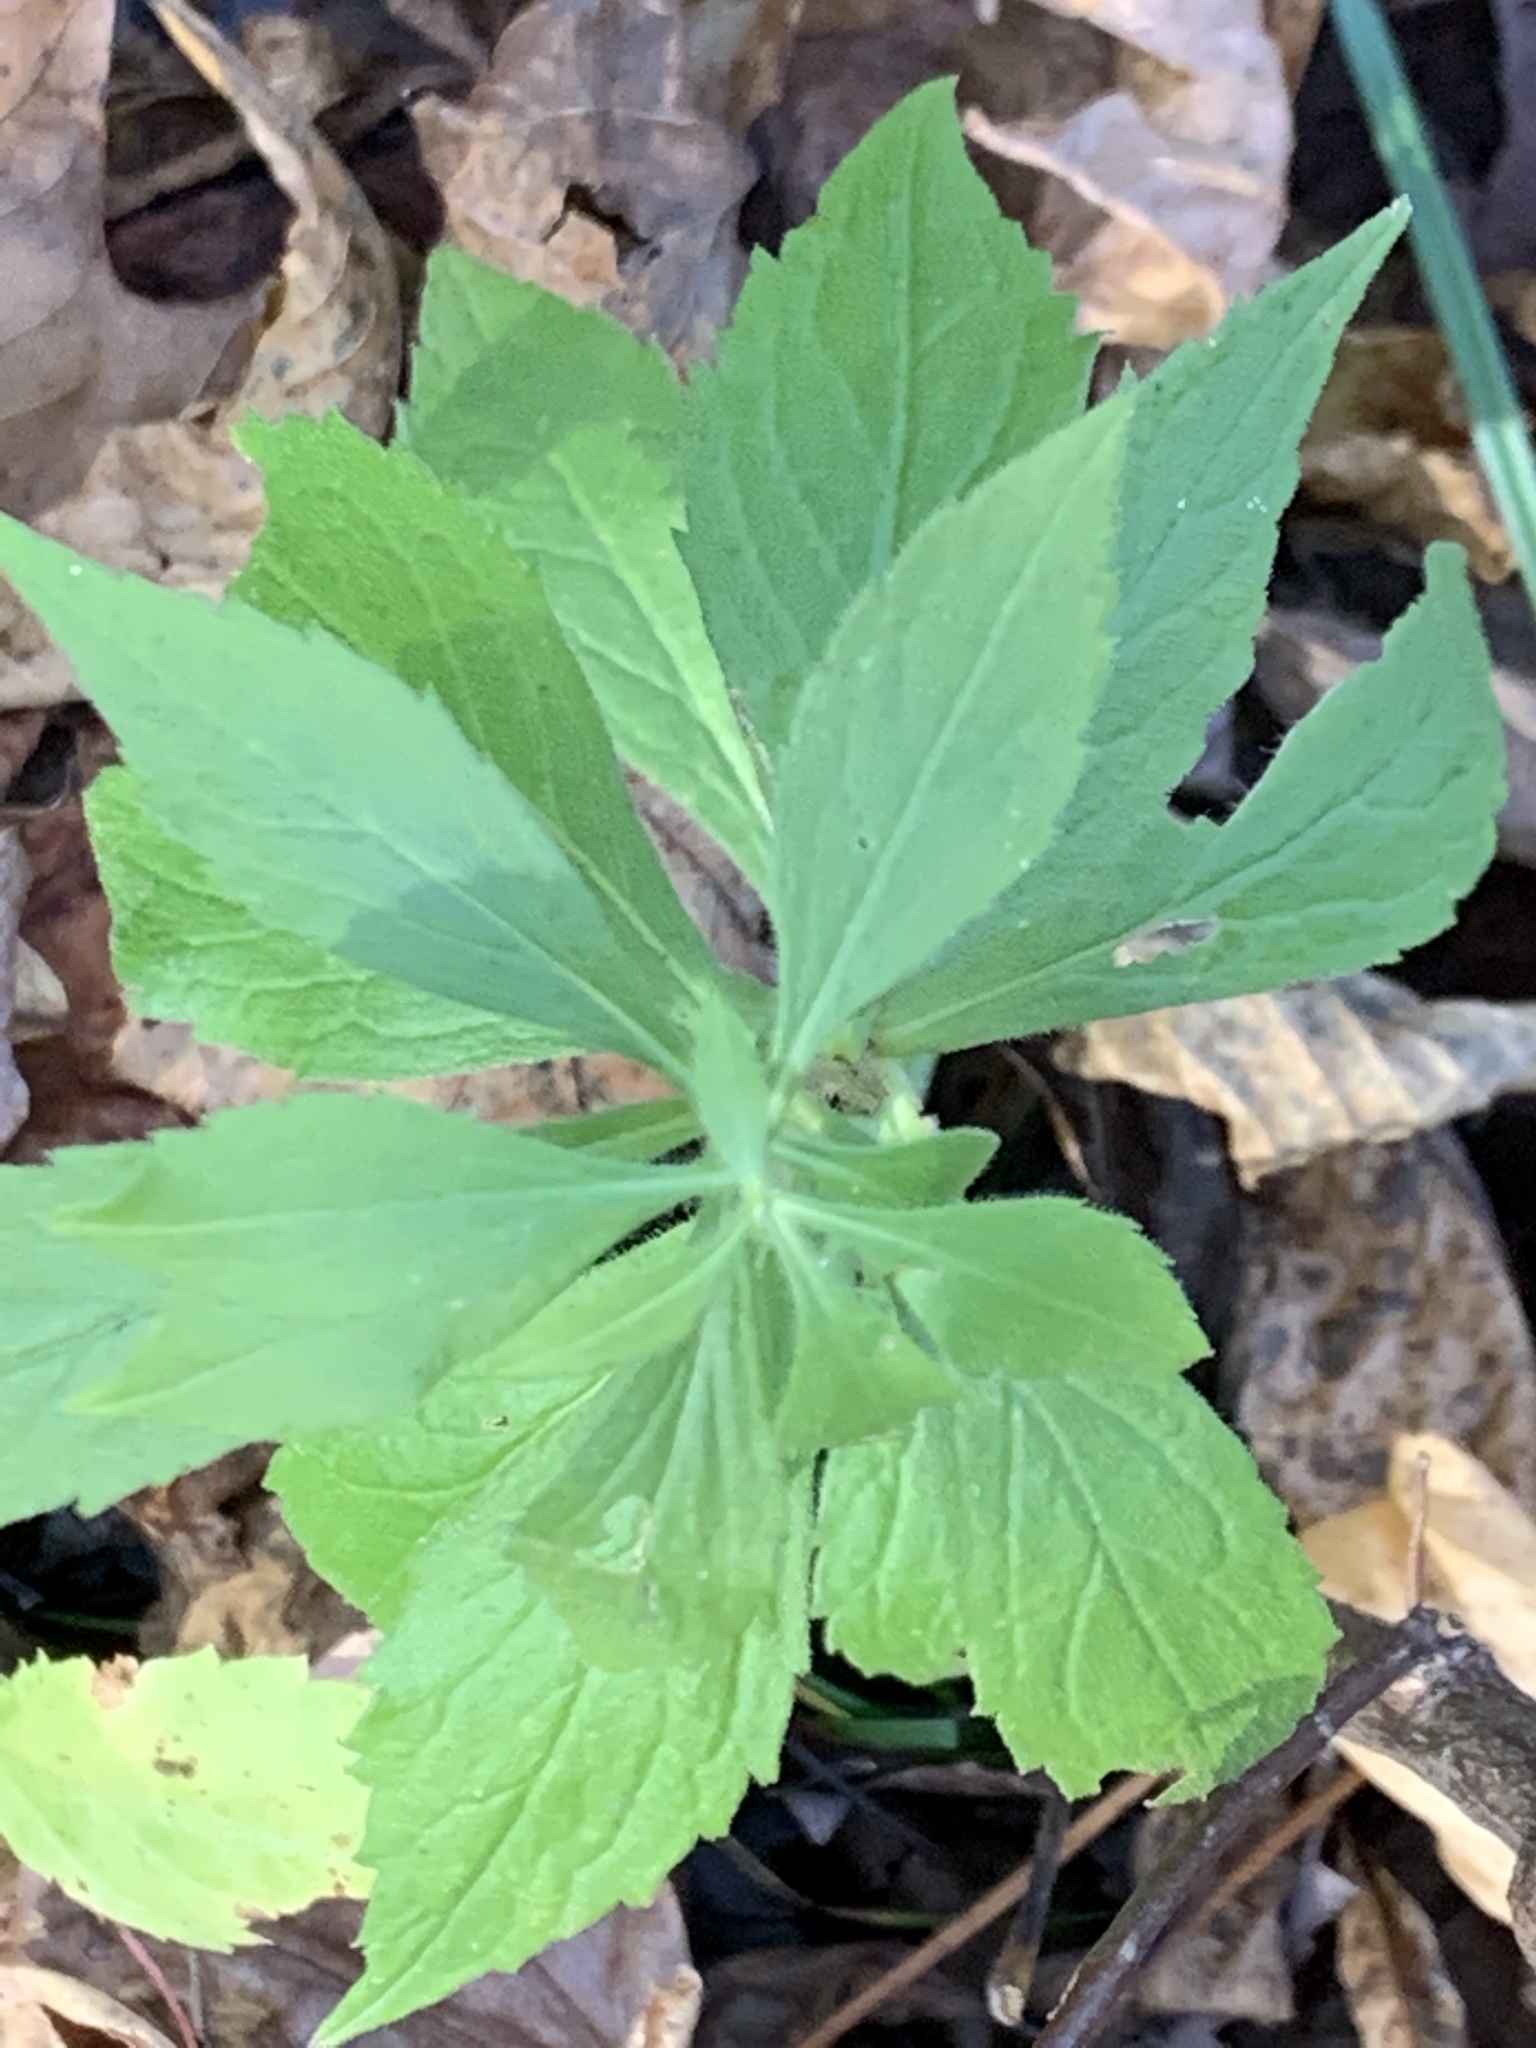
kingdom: Plantae
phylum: Tracheophyta
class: Magnoliopsida
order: Asterales
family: Asteraceae
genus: Solidago
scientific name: Solidago rugosa
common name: Rough-stemmed goldenrod
